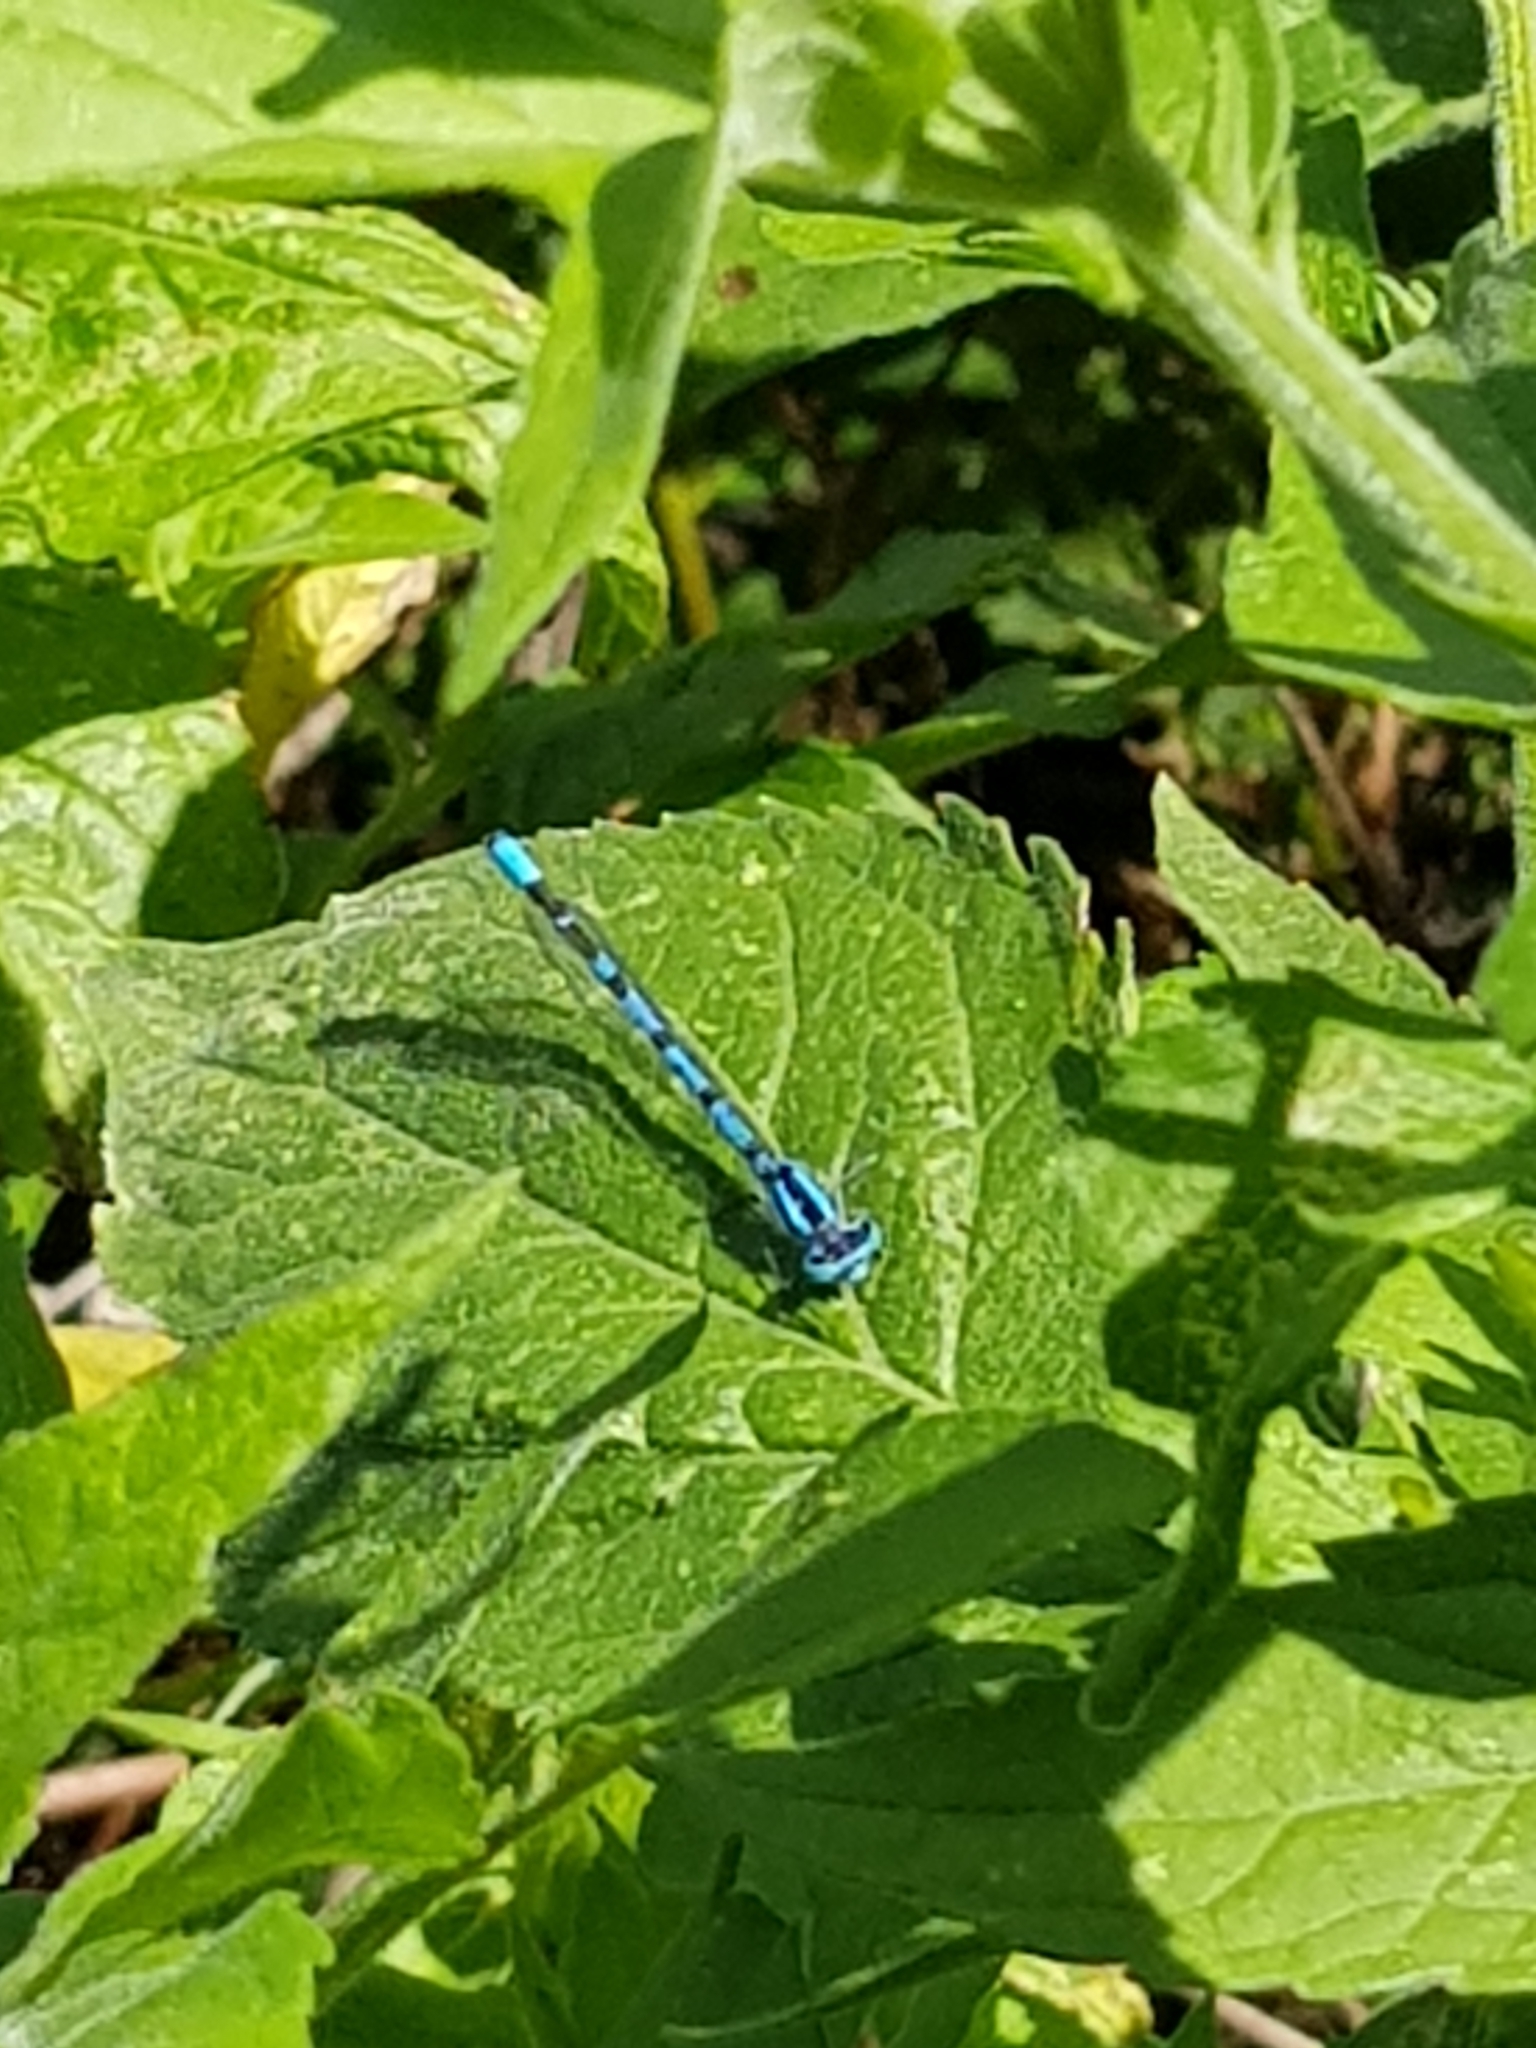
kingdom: Animalia
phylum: Arthropoda
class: Insecta
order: Odonata
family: Coenagrionidae
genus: Enallagma
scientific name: Enallagma cyathigerum
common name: Common blue damselfly
